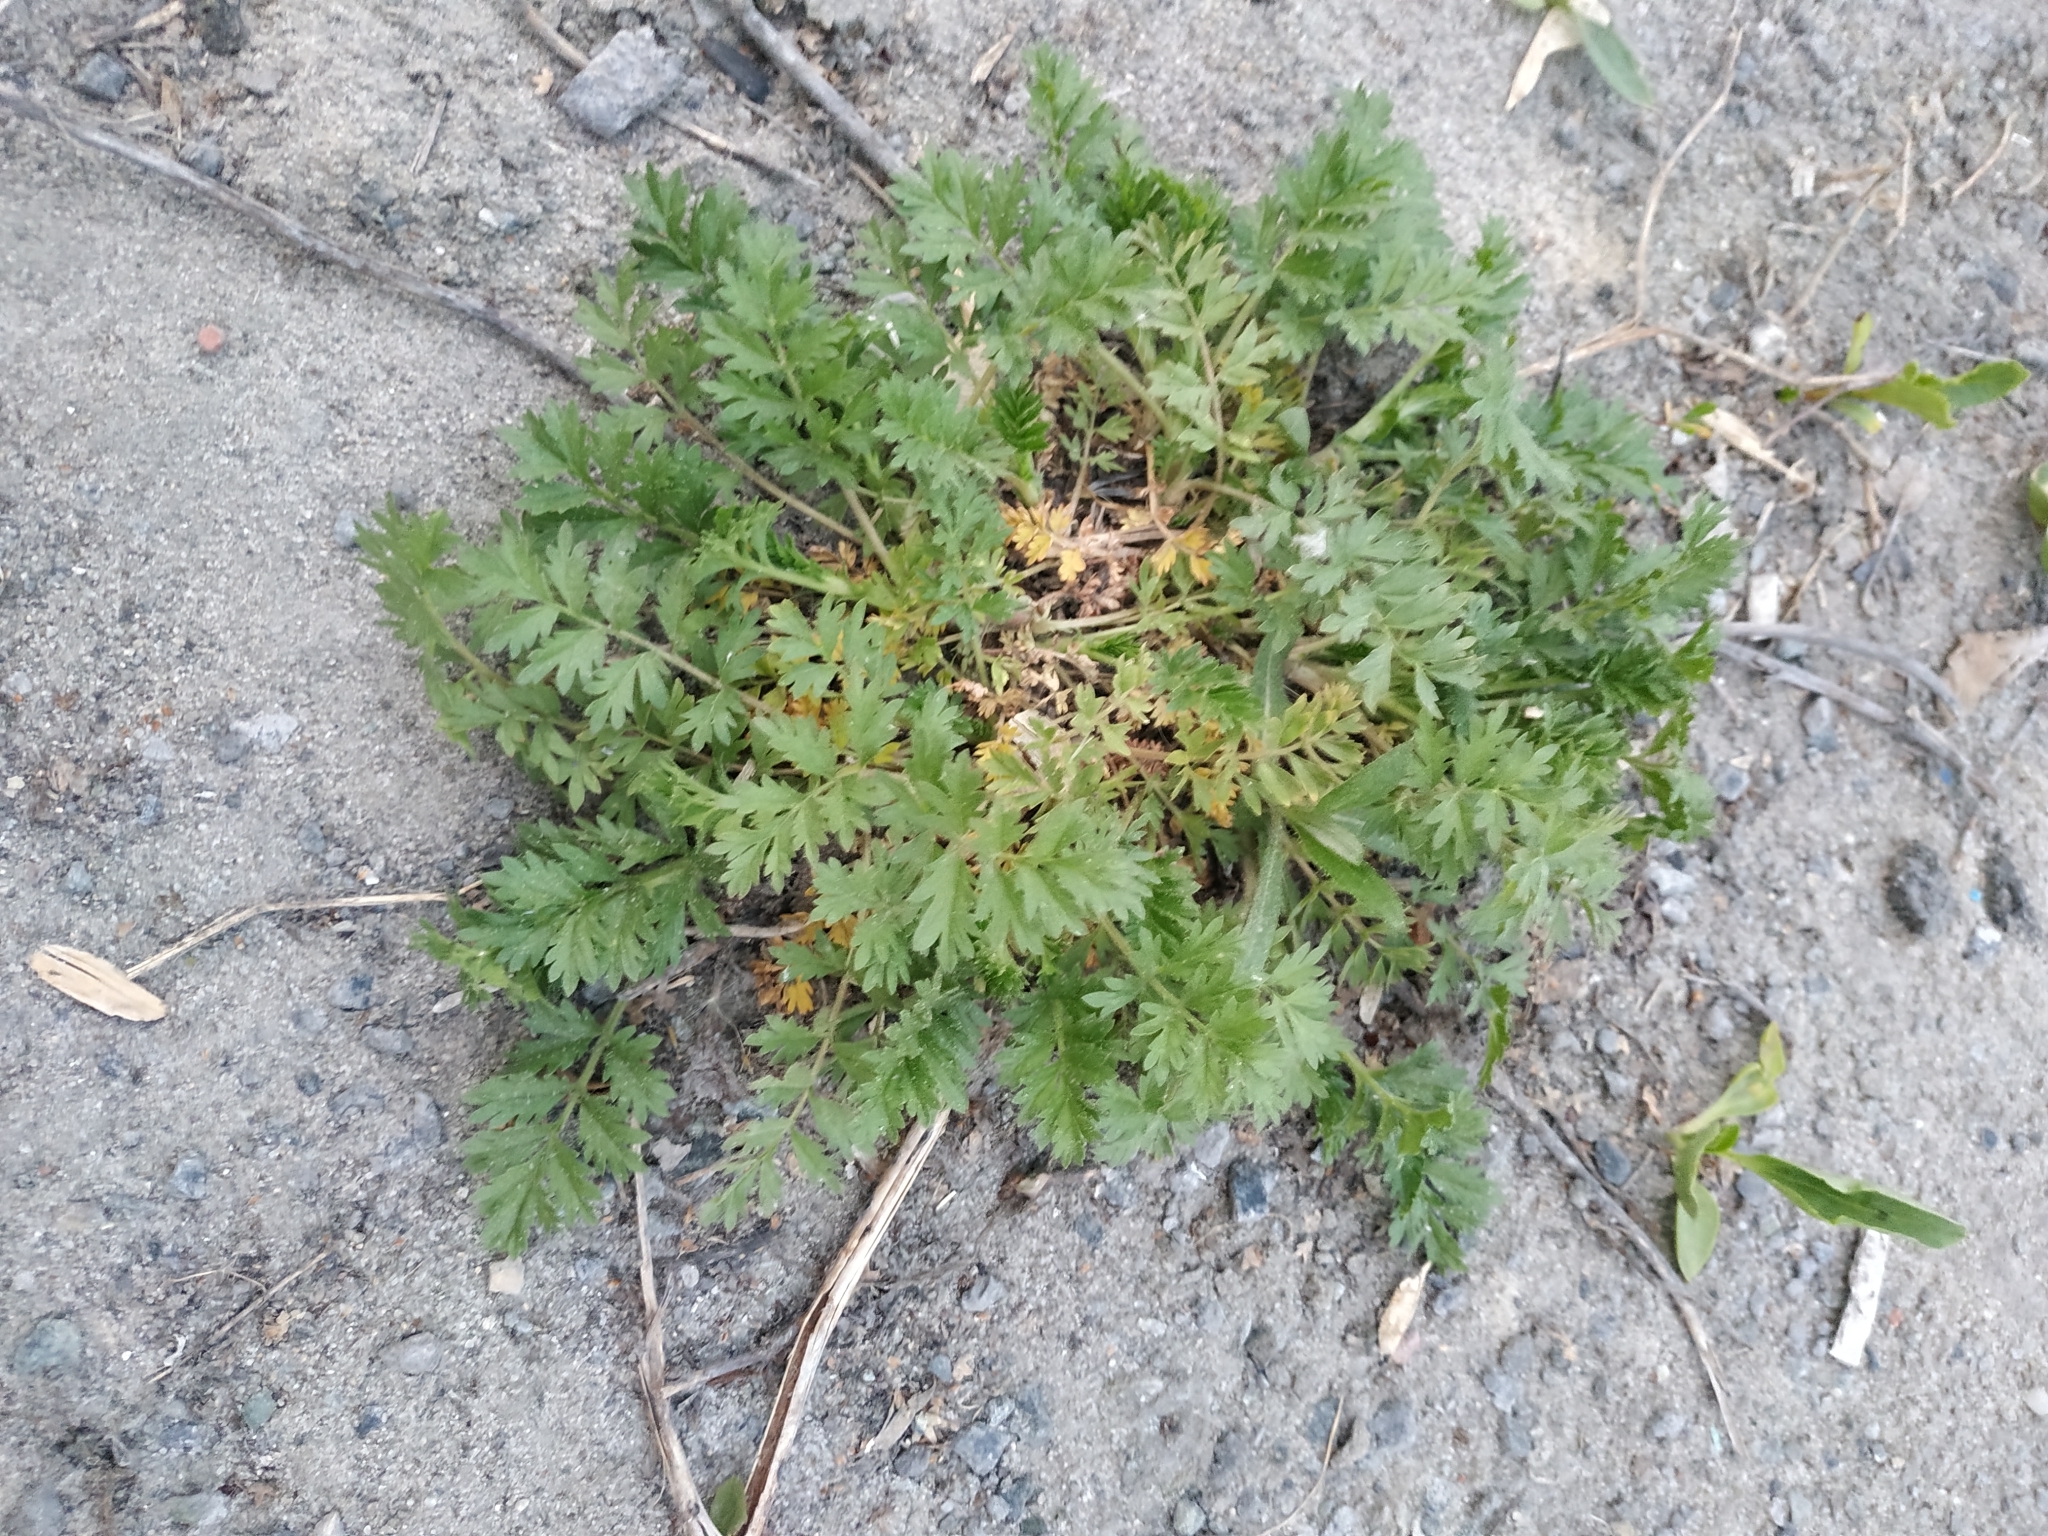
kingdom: Plantae
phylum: Tracheophyta
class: Magnoliopsida
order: Rosales
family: Rosaceae
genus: Potentilla
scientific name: Potentilla supina
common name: Prostrate cinquefoil
